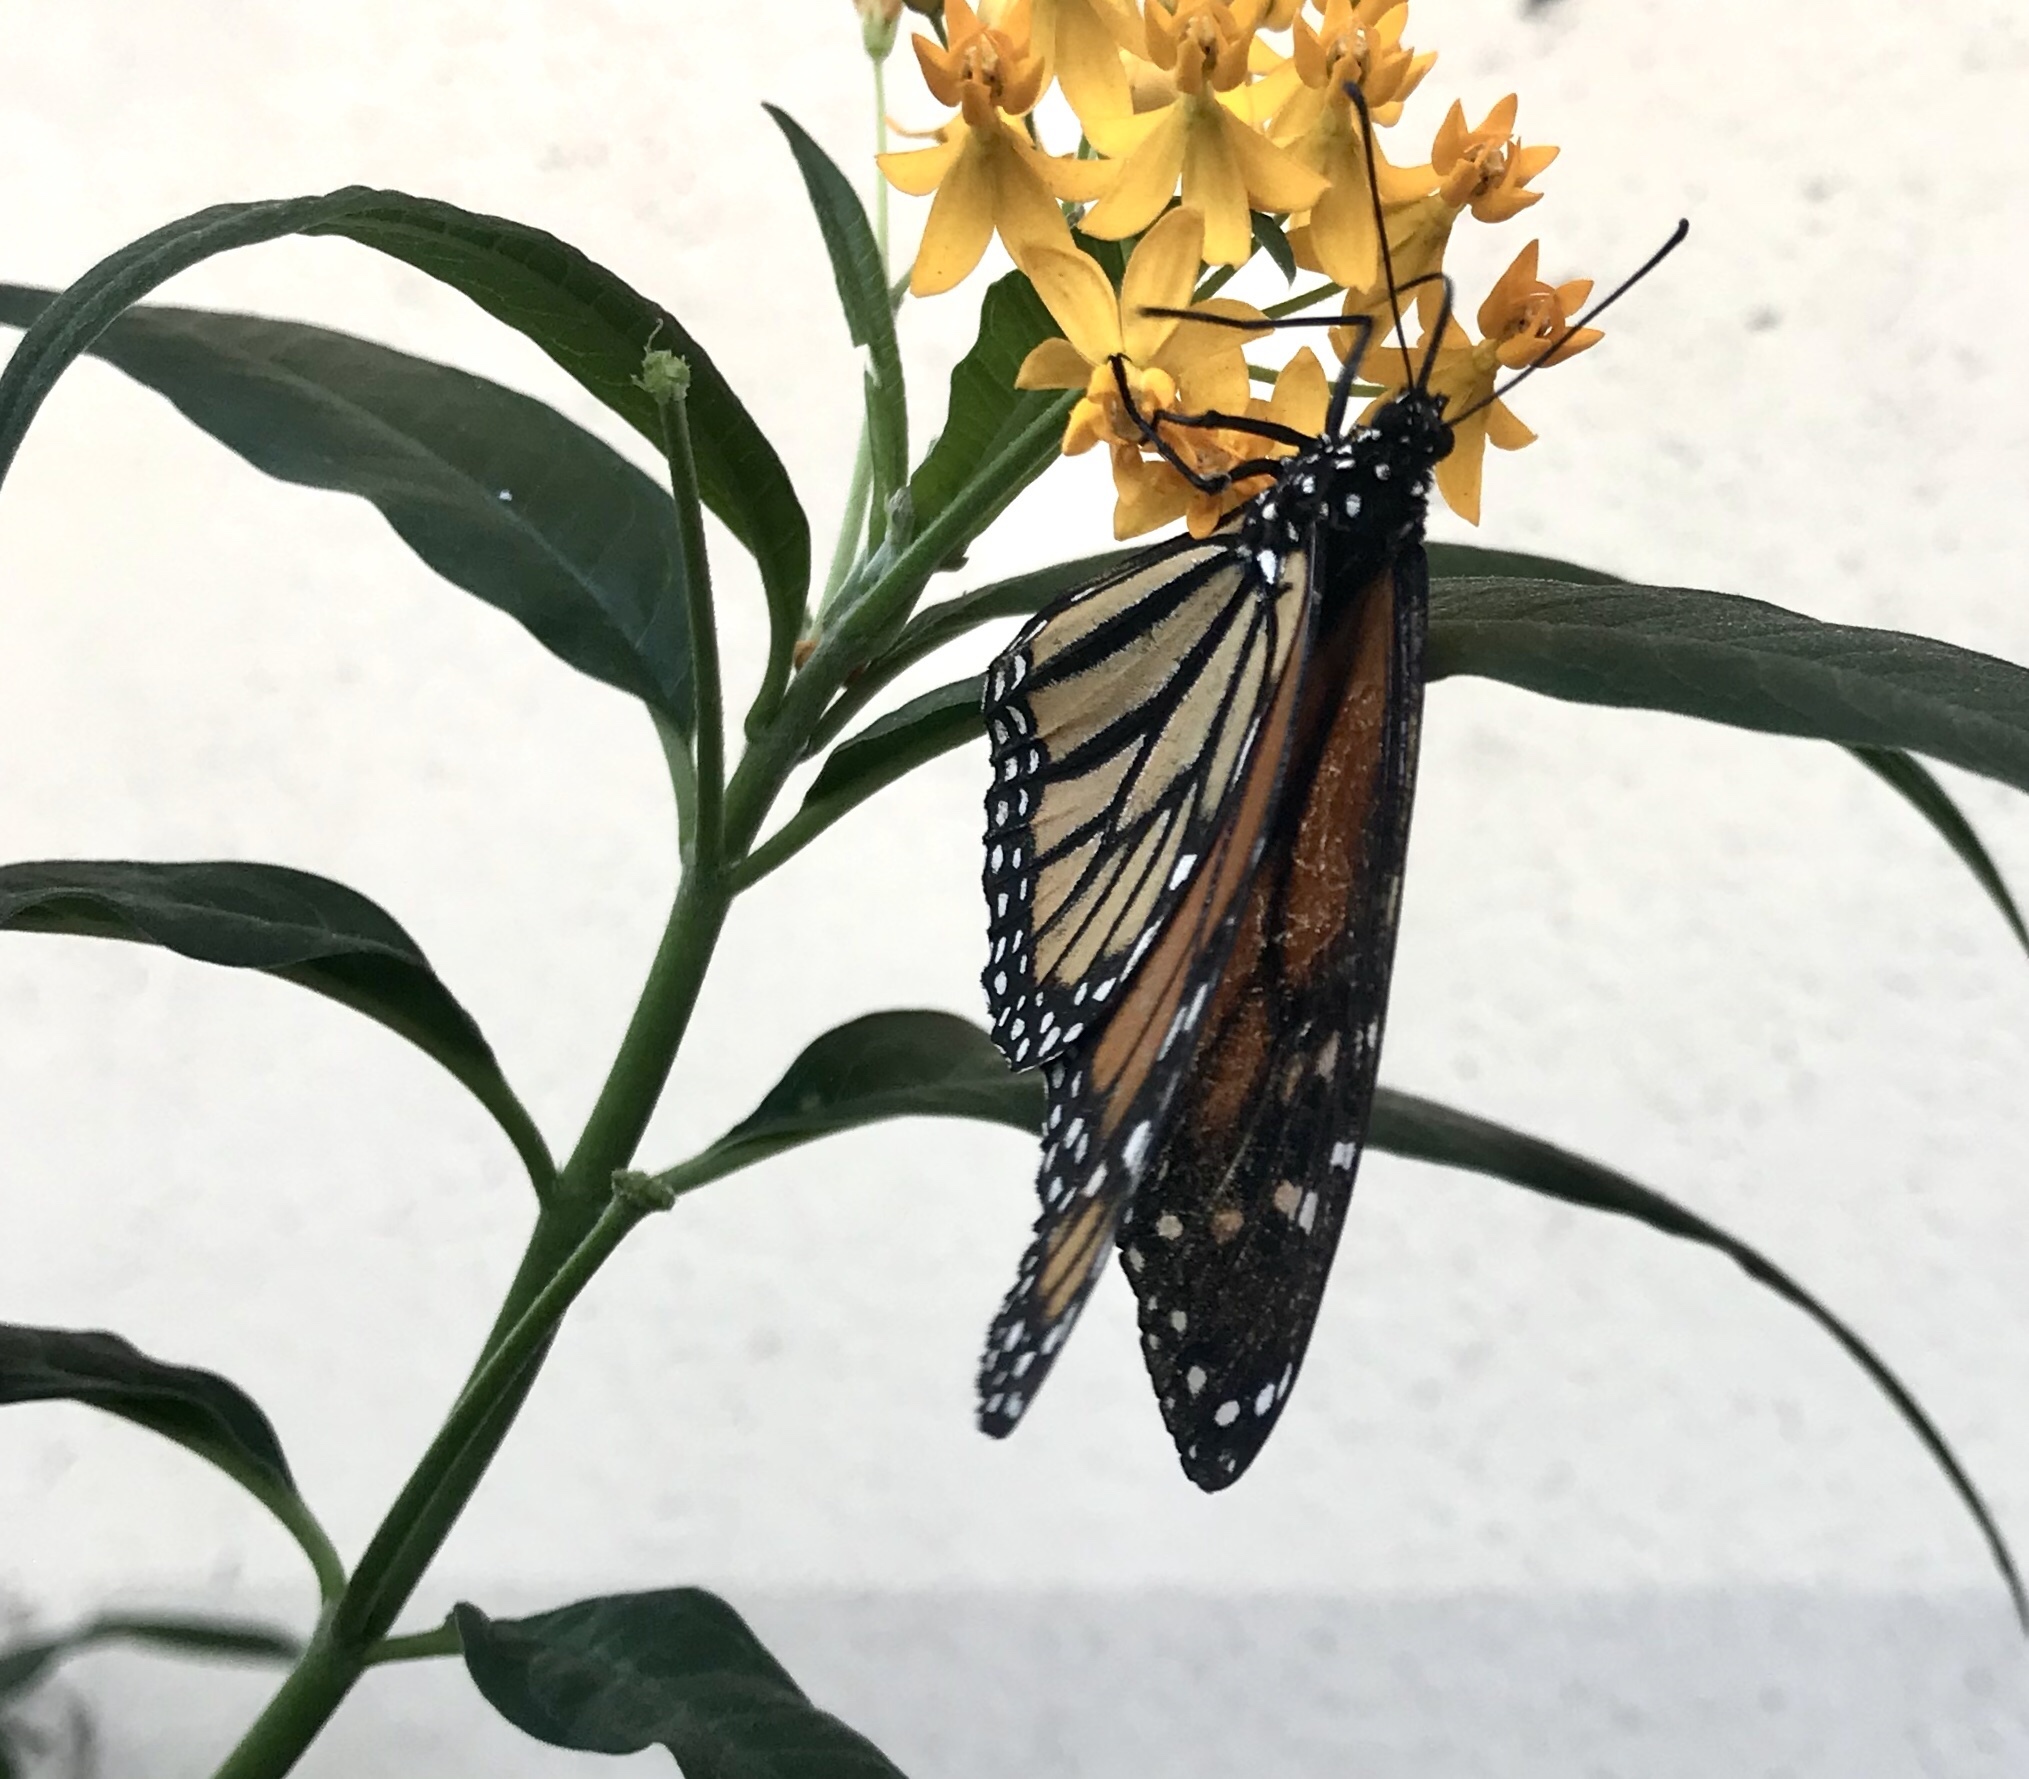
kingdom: Animalia
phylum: Arthropoda
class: Insecta
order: Lepidoptera
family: Nymphalidae
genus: Danaus
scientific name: Danaus plexippus
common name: Monarch
